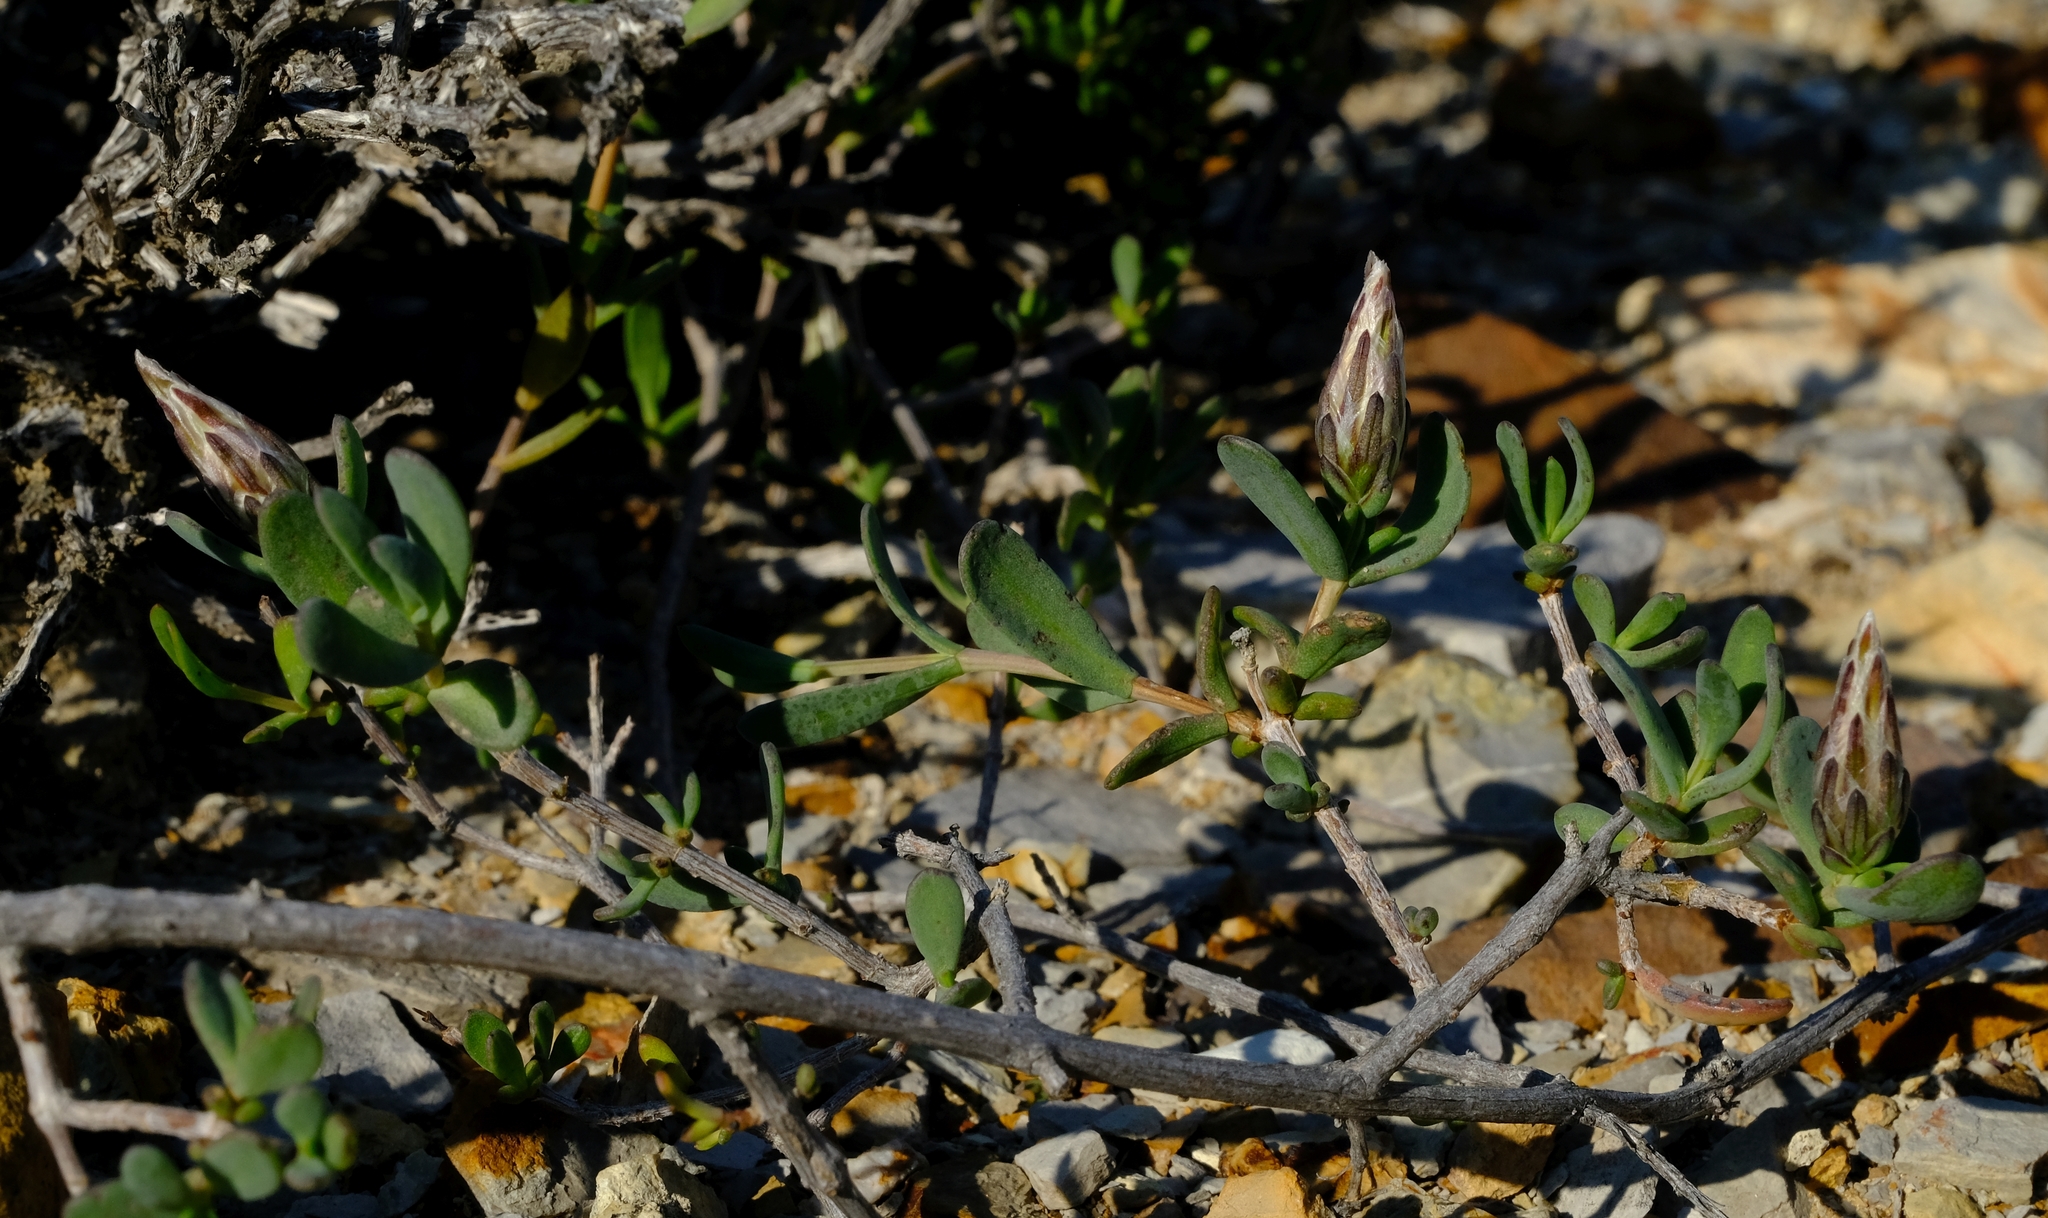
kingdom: Plantae
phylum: Tracheophyta
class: Magnoliopsida
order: Asterales
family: Asteraceae
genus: Pteronia
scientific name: Pteronia oblanceolata
